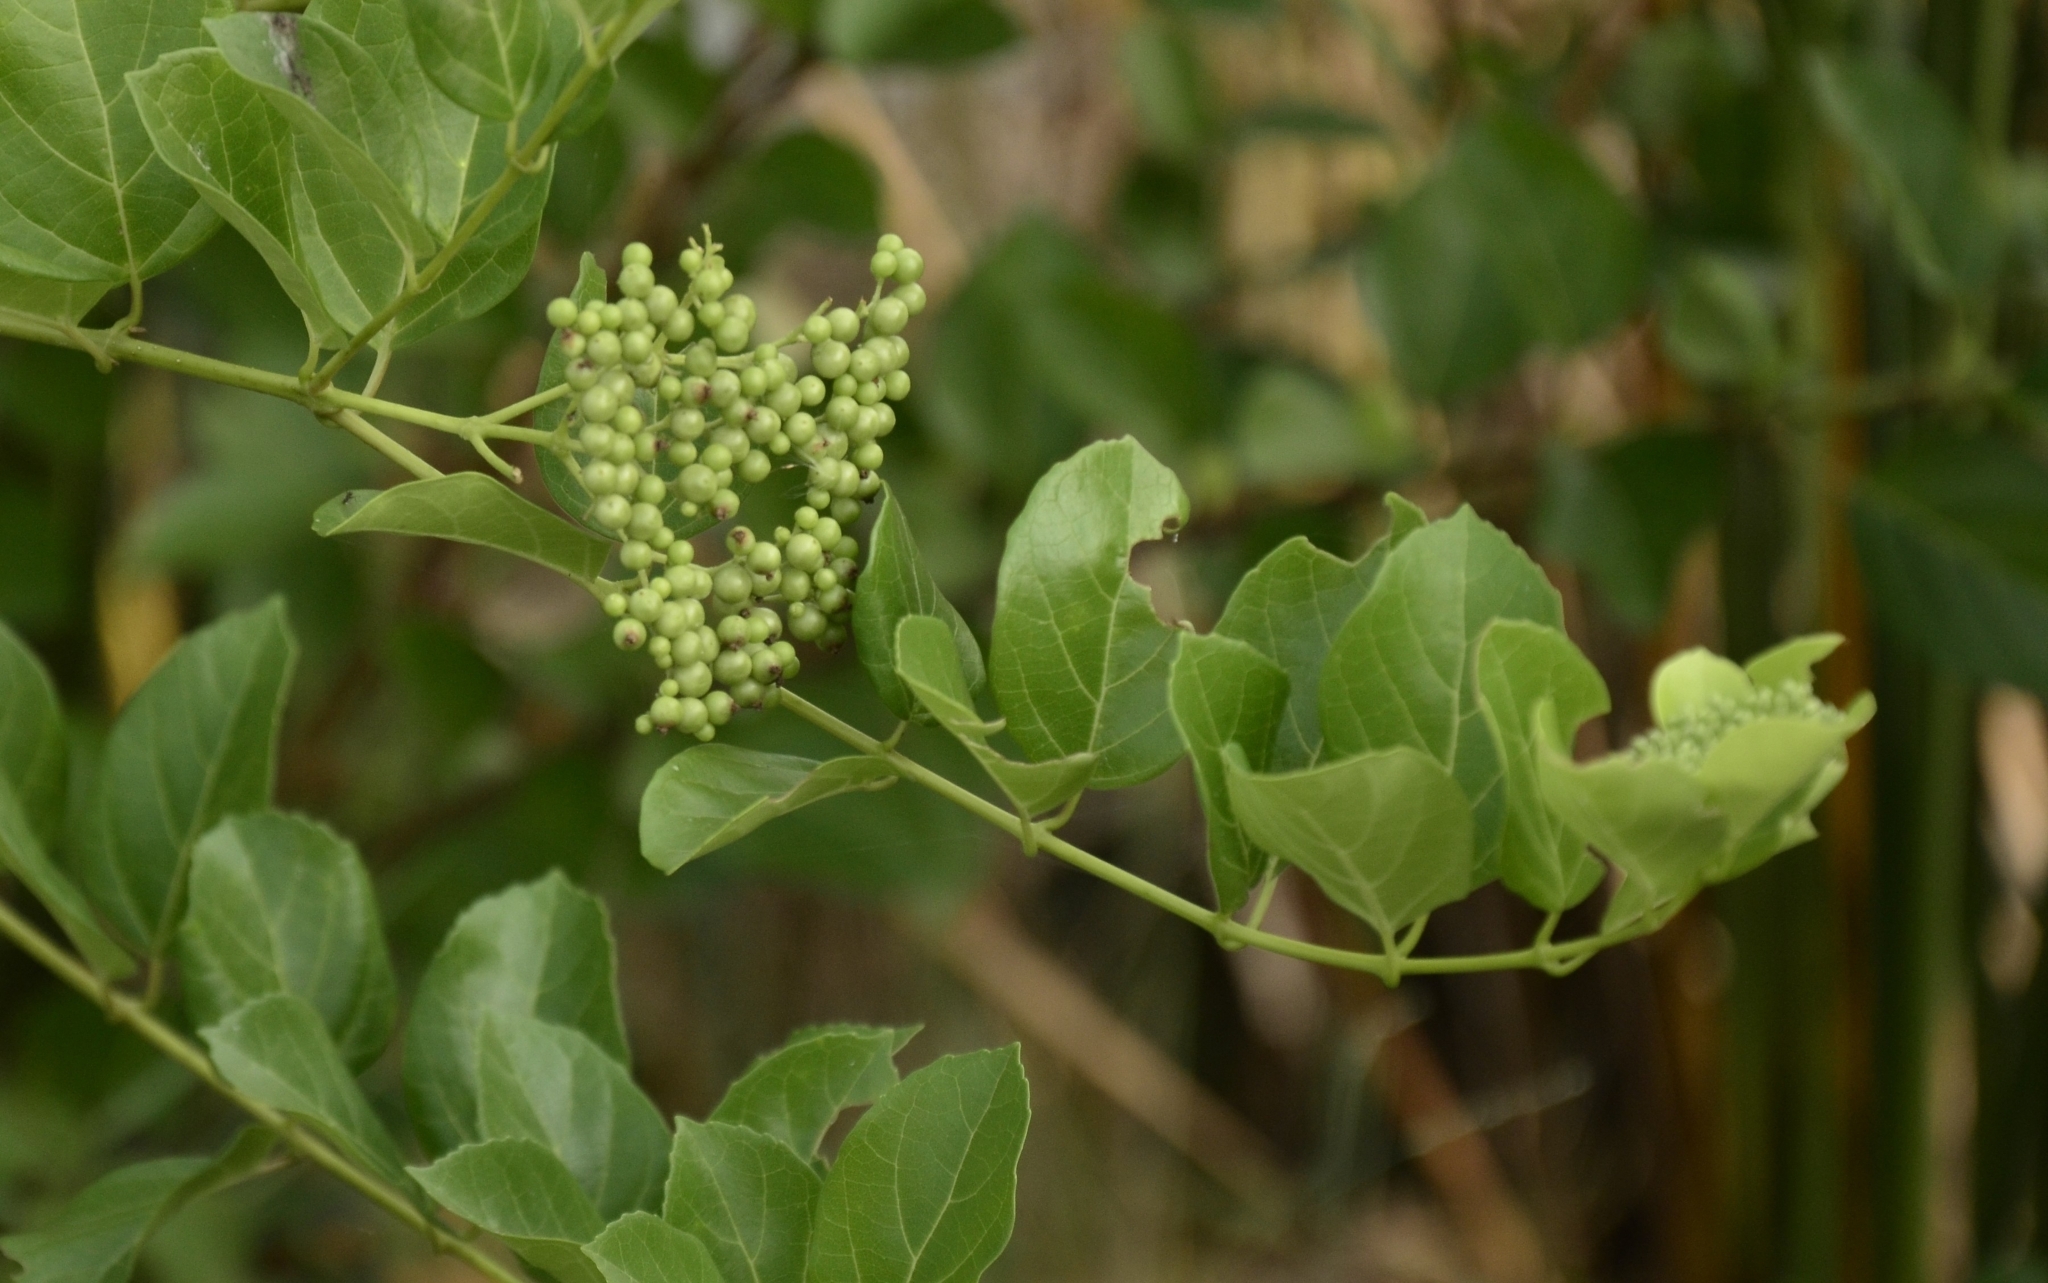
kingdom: Plantae
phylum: Tracheophyta
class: Magnoliopsida
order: Lamiales
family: Lamiaceae
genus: Premna
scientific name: Premna serratifolia
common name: Bastard guelder
